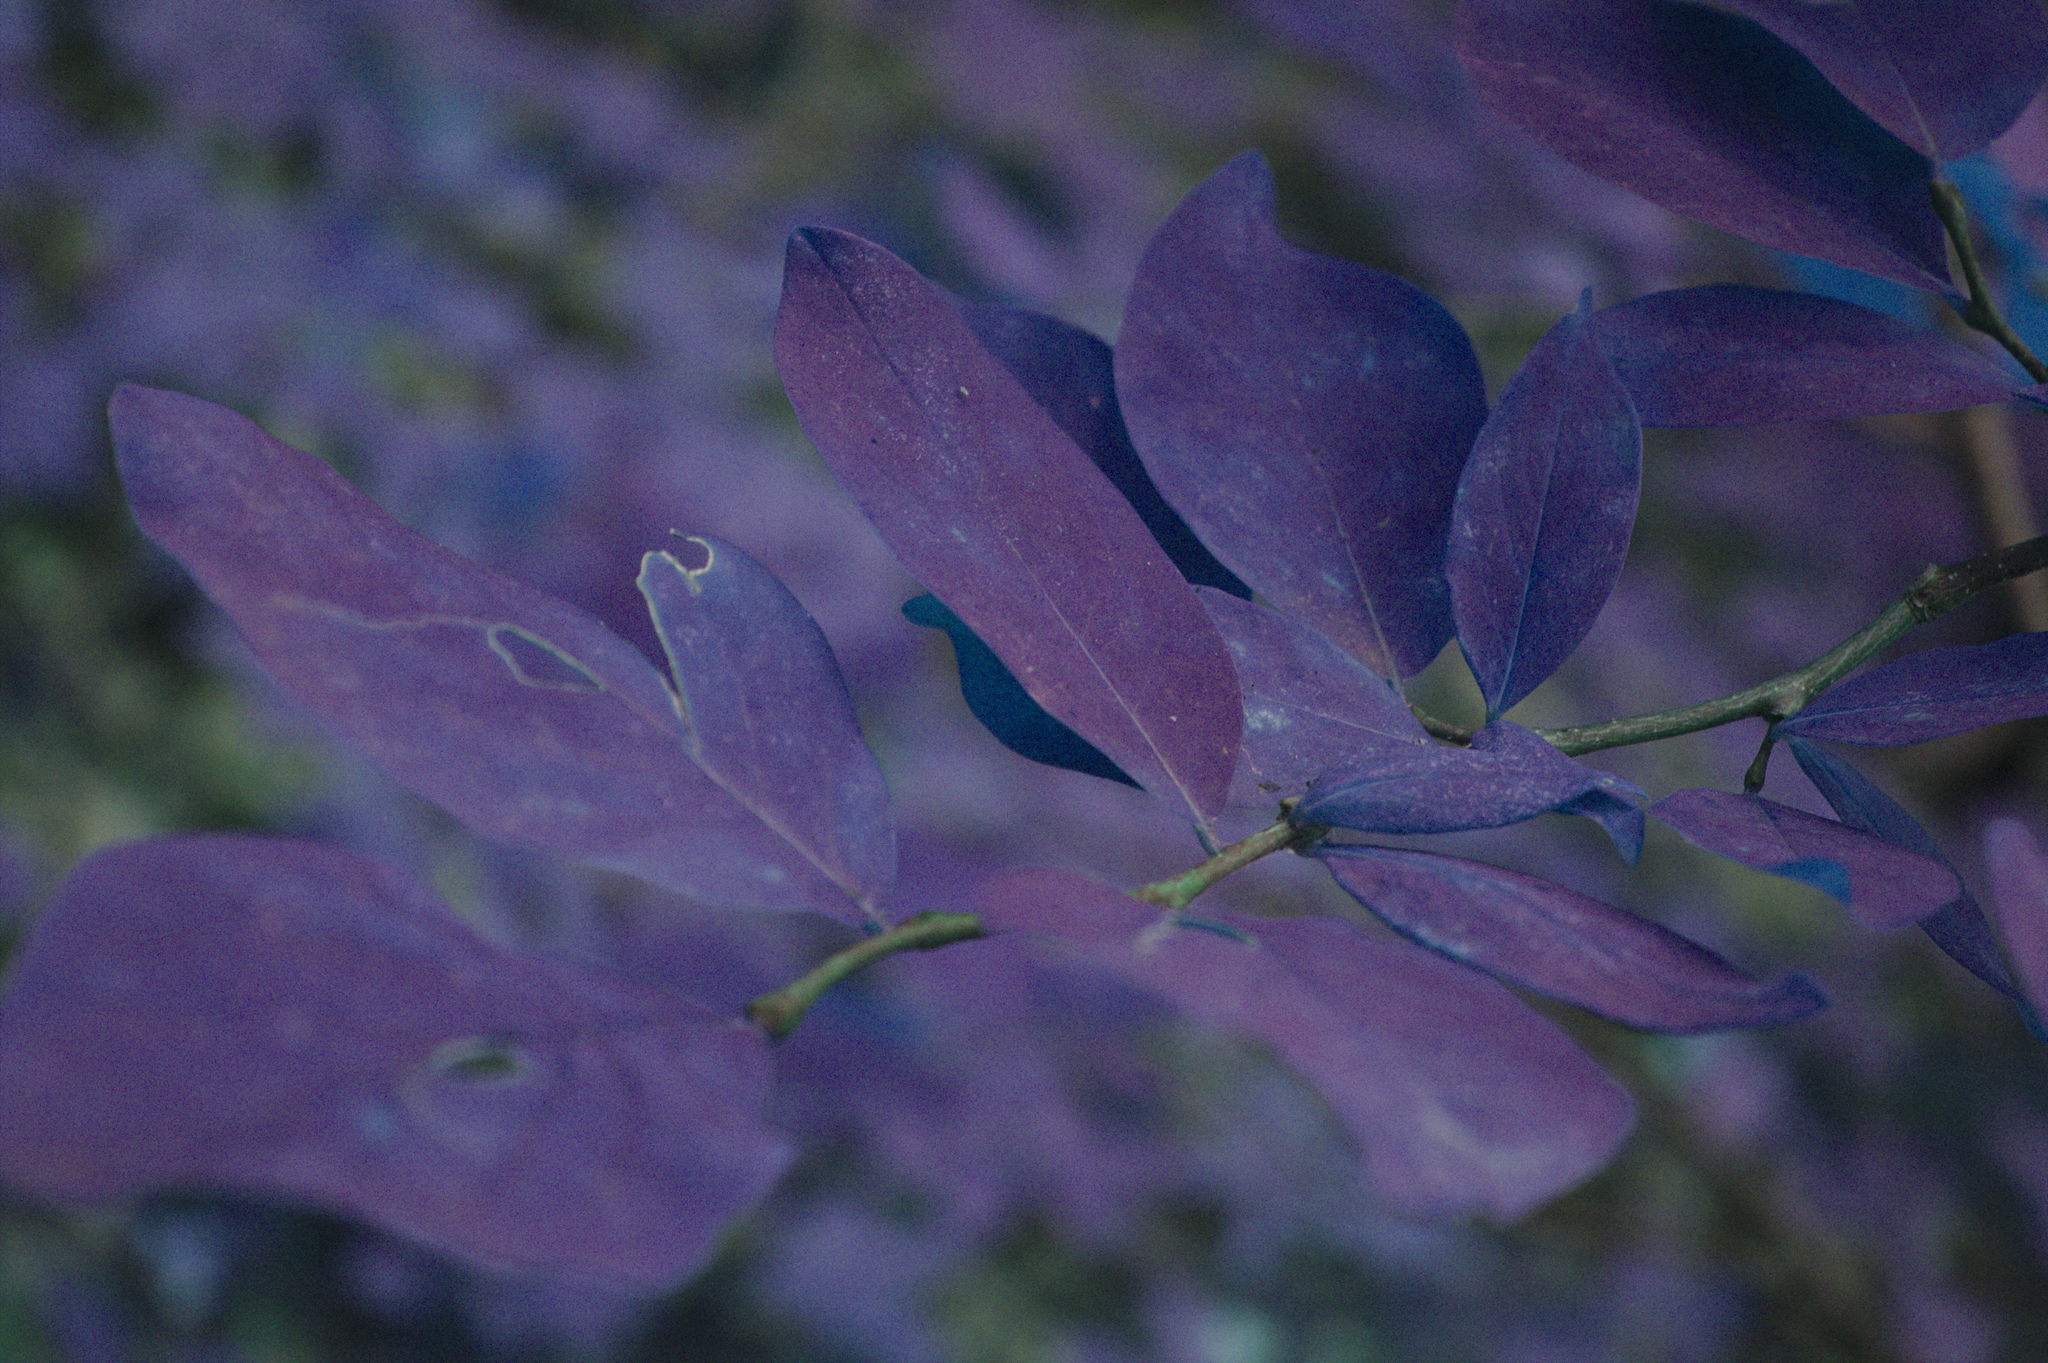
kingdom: Plantae
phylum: Tracheophyta
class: Magnoliopsida
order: Malvales
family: Thymelaeaceae
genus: Dirca
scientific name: Dirca palustris
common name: Leatherwood
